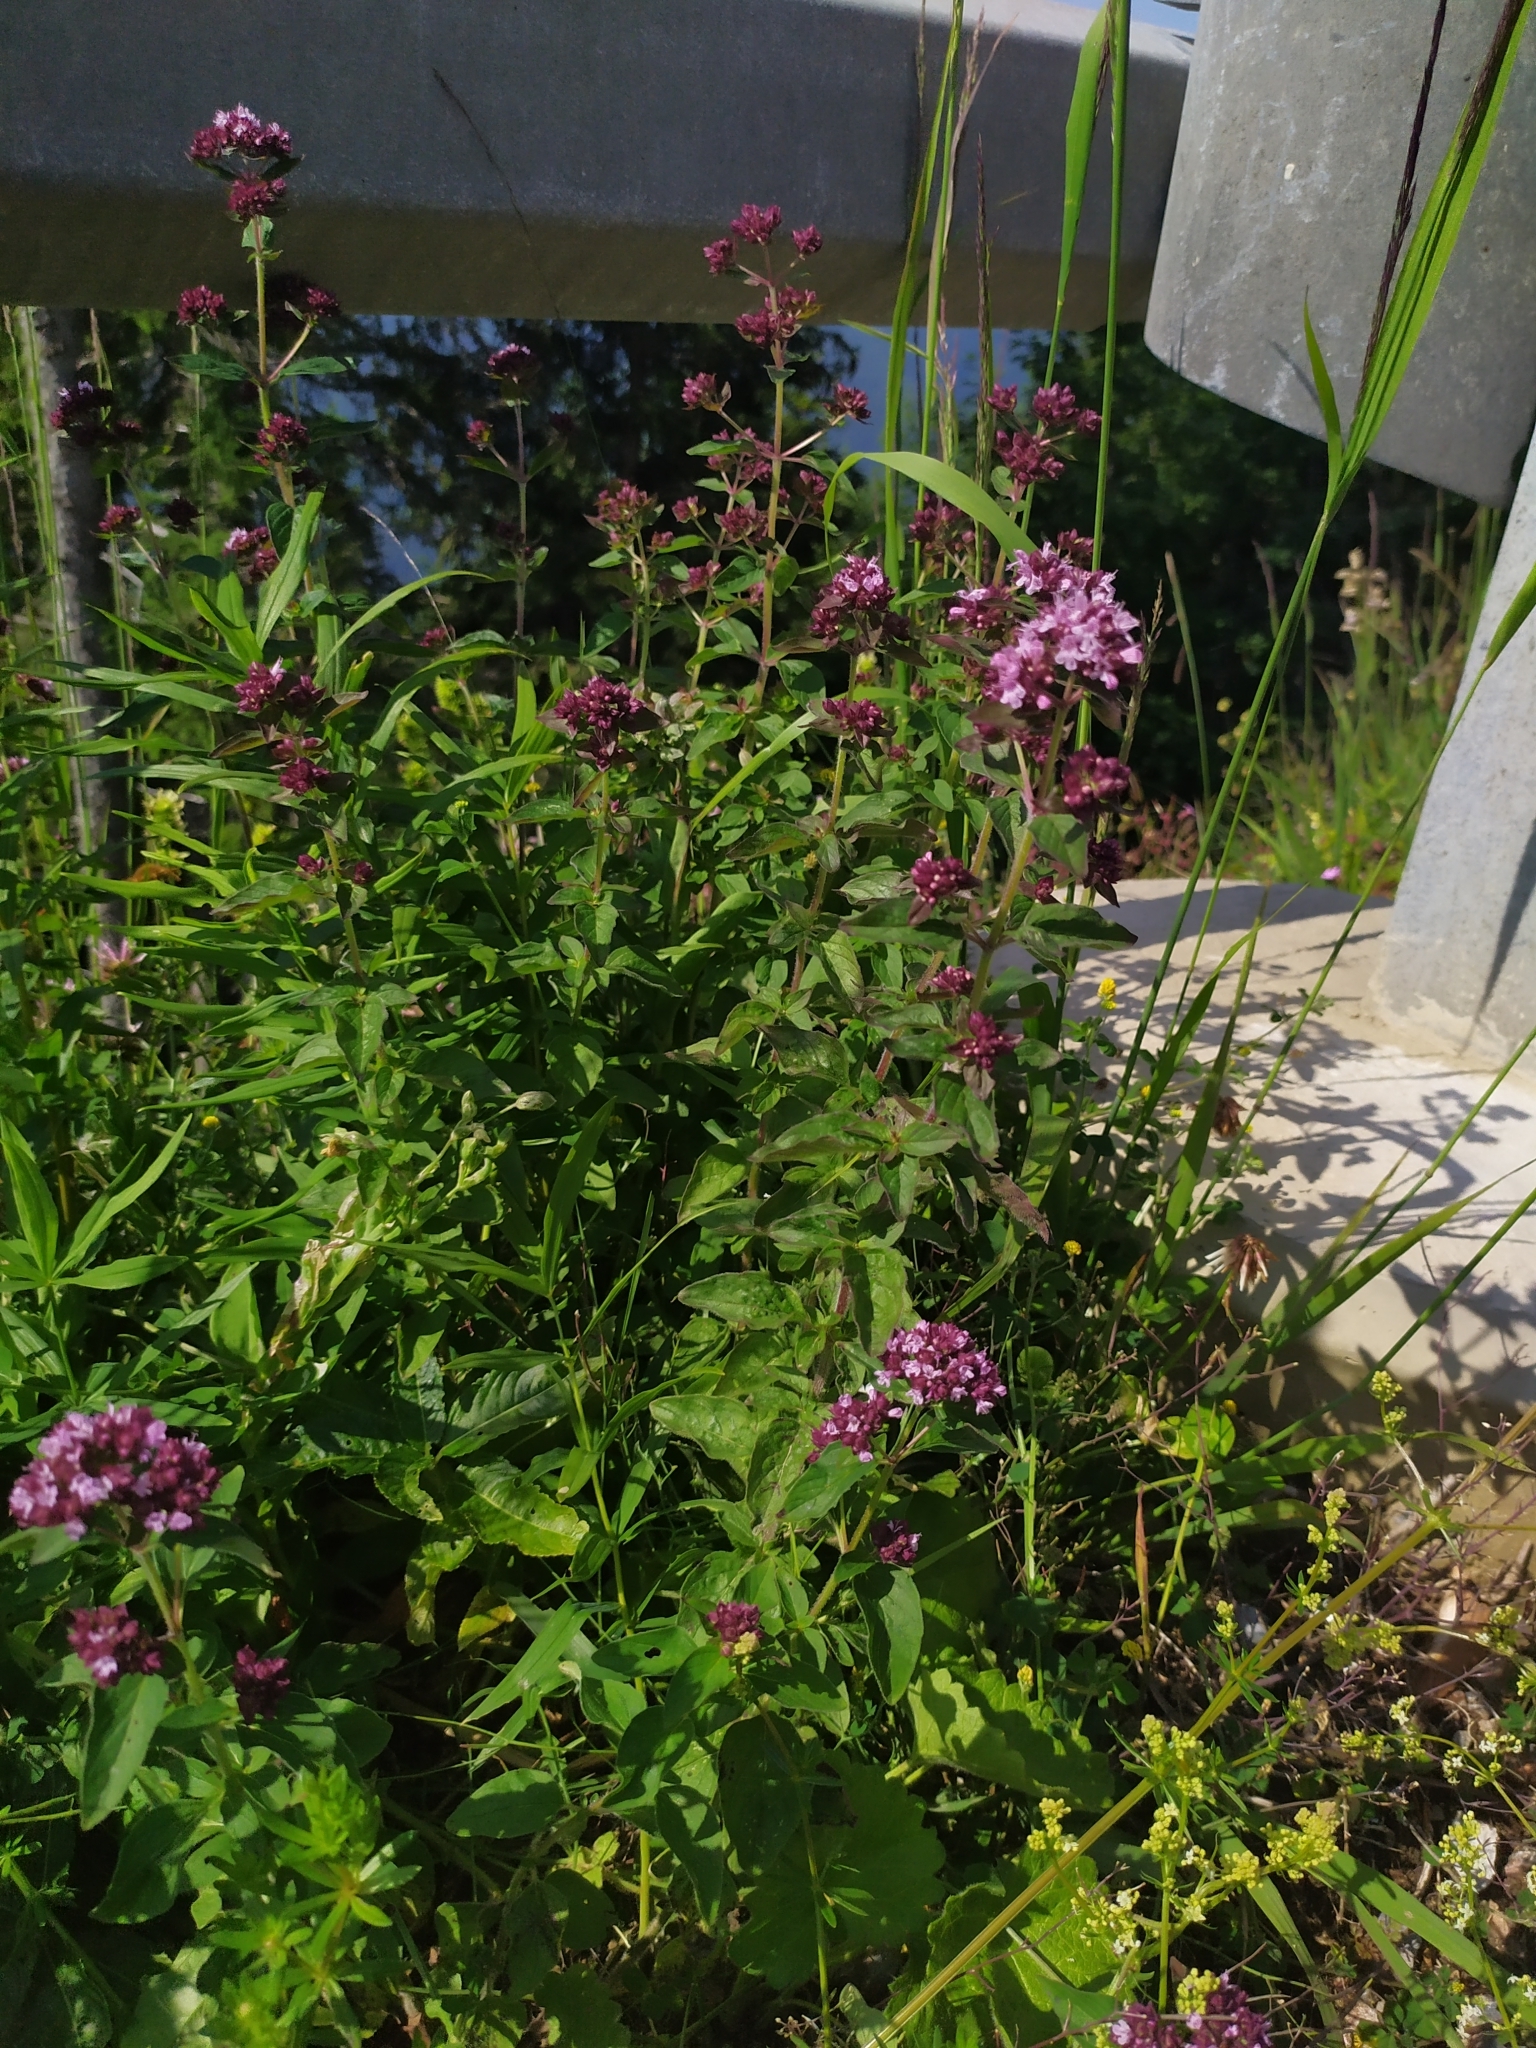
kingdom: Plantae
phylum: Tracheophyta
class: Magnoliopsida
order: Lamiales
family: Lamiaceae
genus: Origanum
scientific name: Origanum vulgare
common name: Wild marjoram
